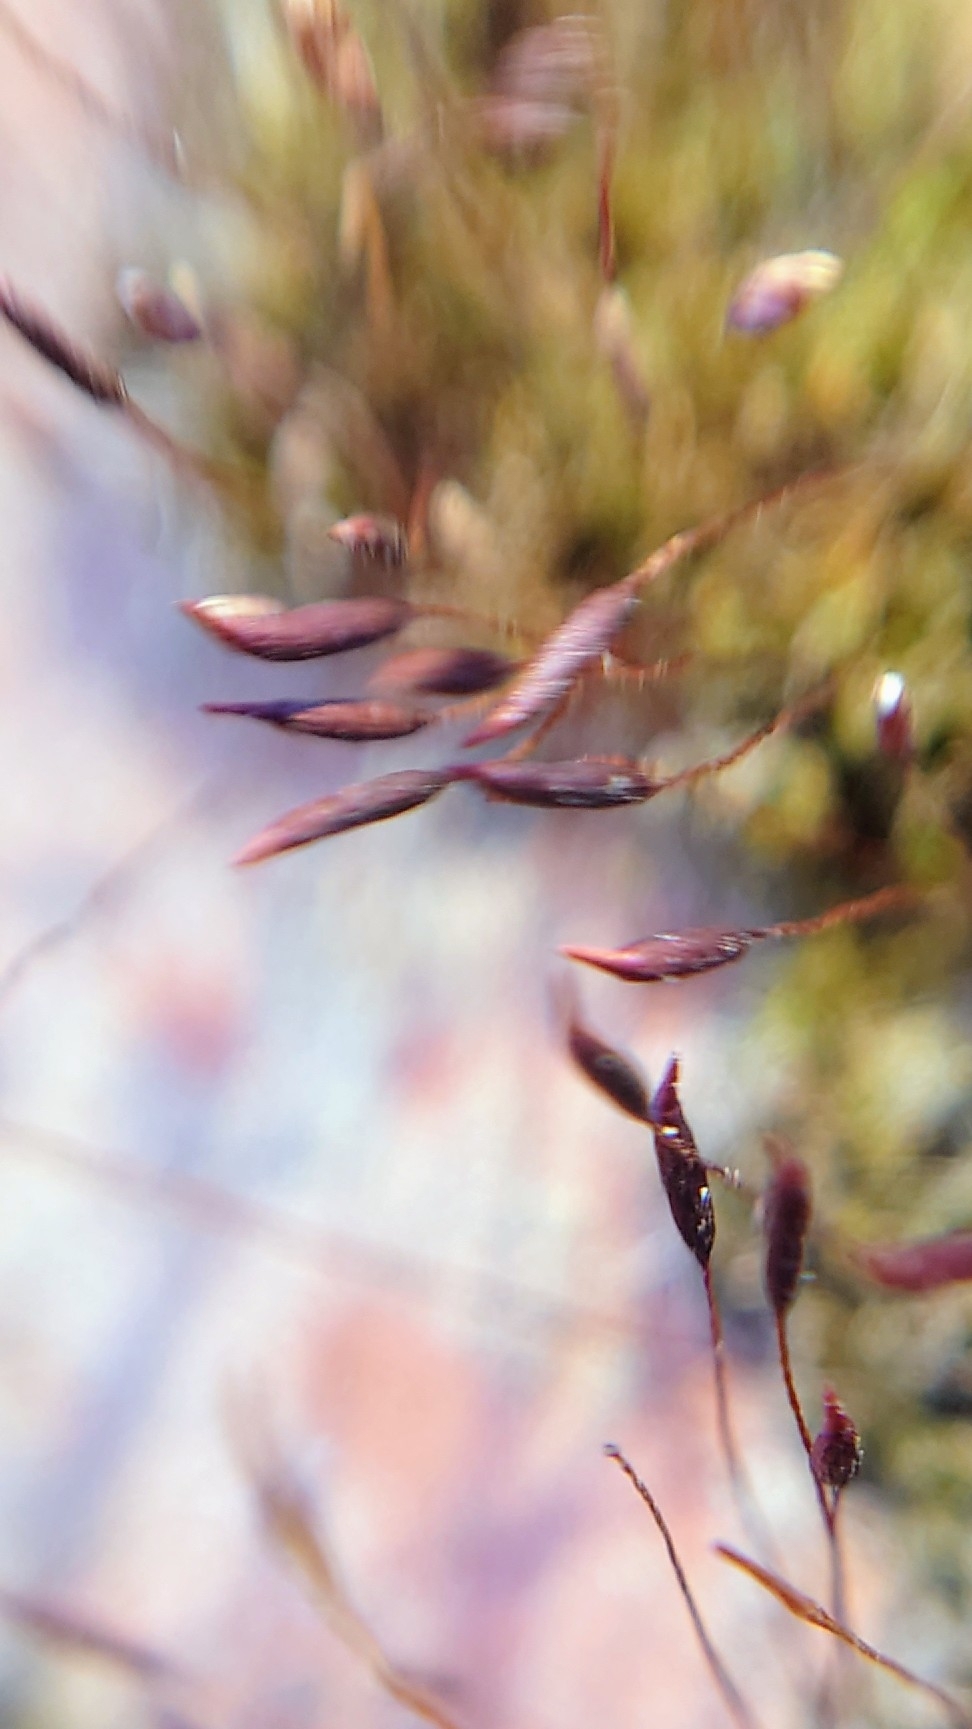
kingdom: Plantae
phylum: Bryophyta
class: Bryopsida
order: Pottiales
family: Pottiaceae
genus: Tortula
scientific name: Tortula muralis
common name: Wall screw-moss
